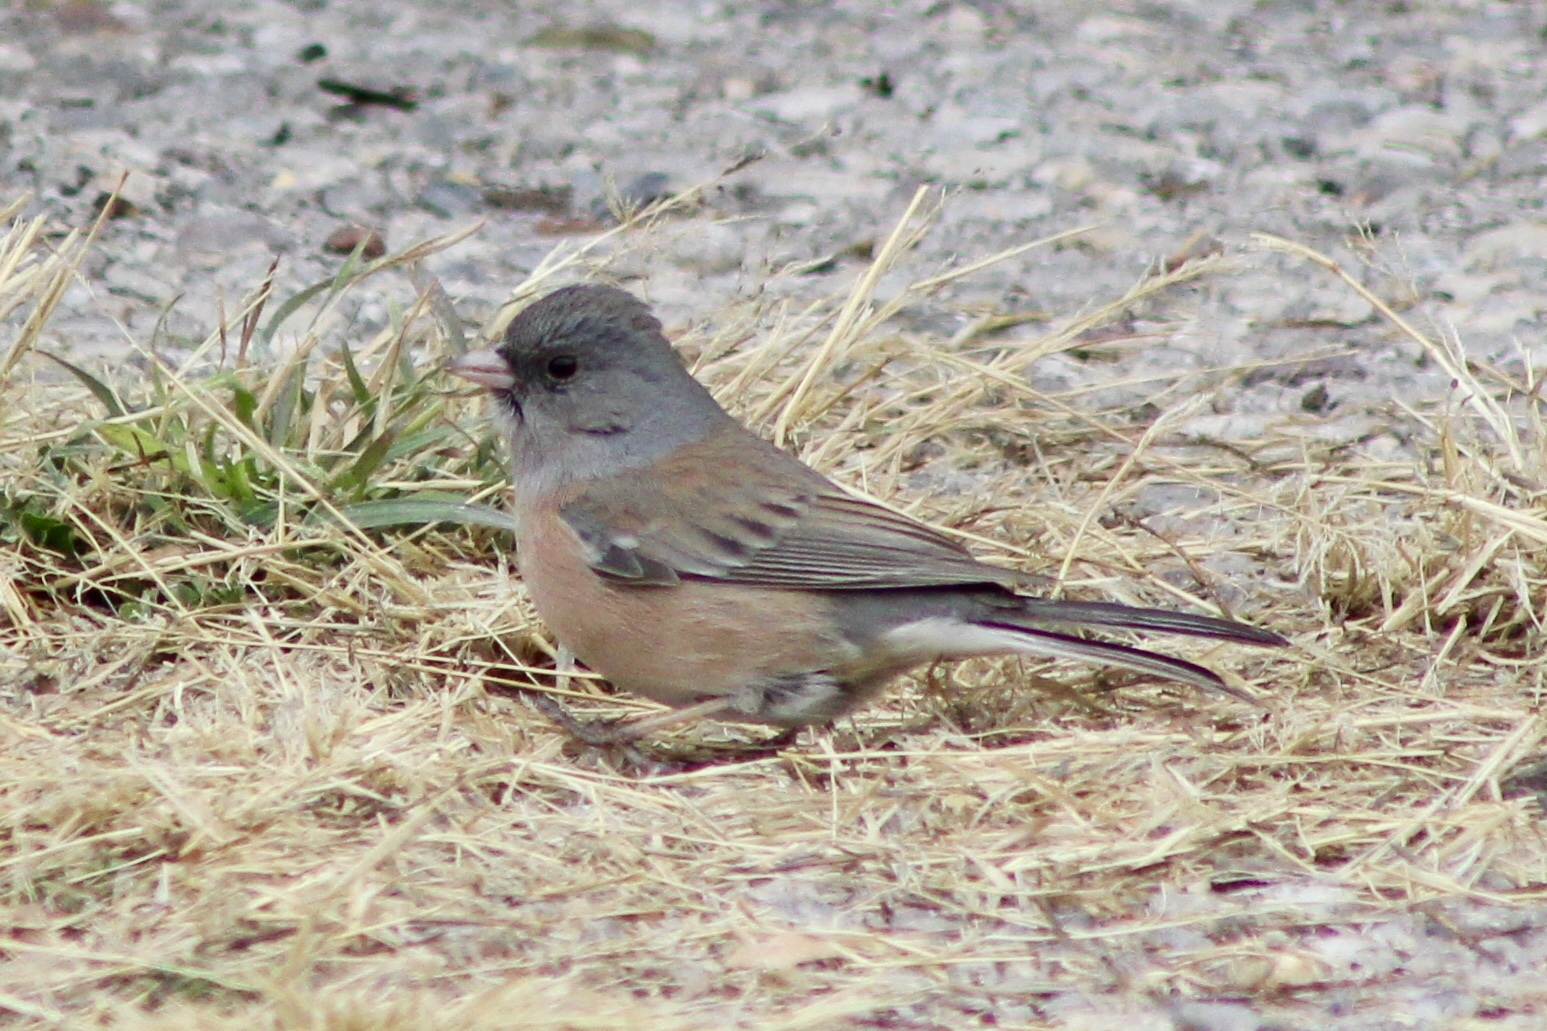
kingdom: Animalia
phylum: Chordata
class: Aves
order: Passeriformes
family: Passerellidae
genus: Junco
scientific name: Junco hyemalis
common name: Dark-eyed junco
